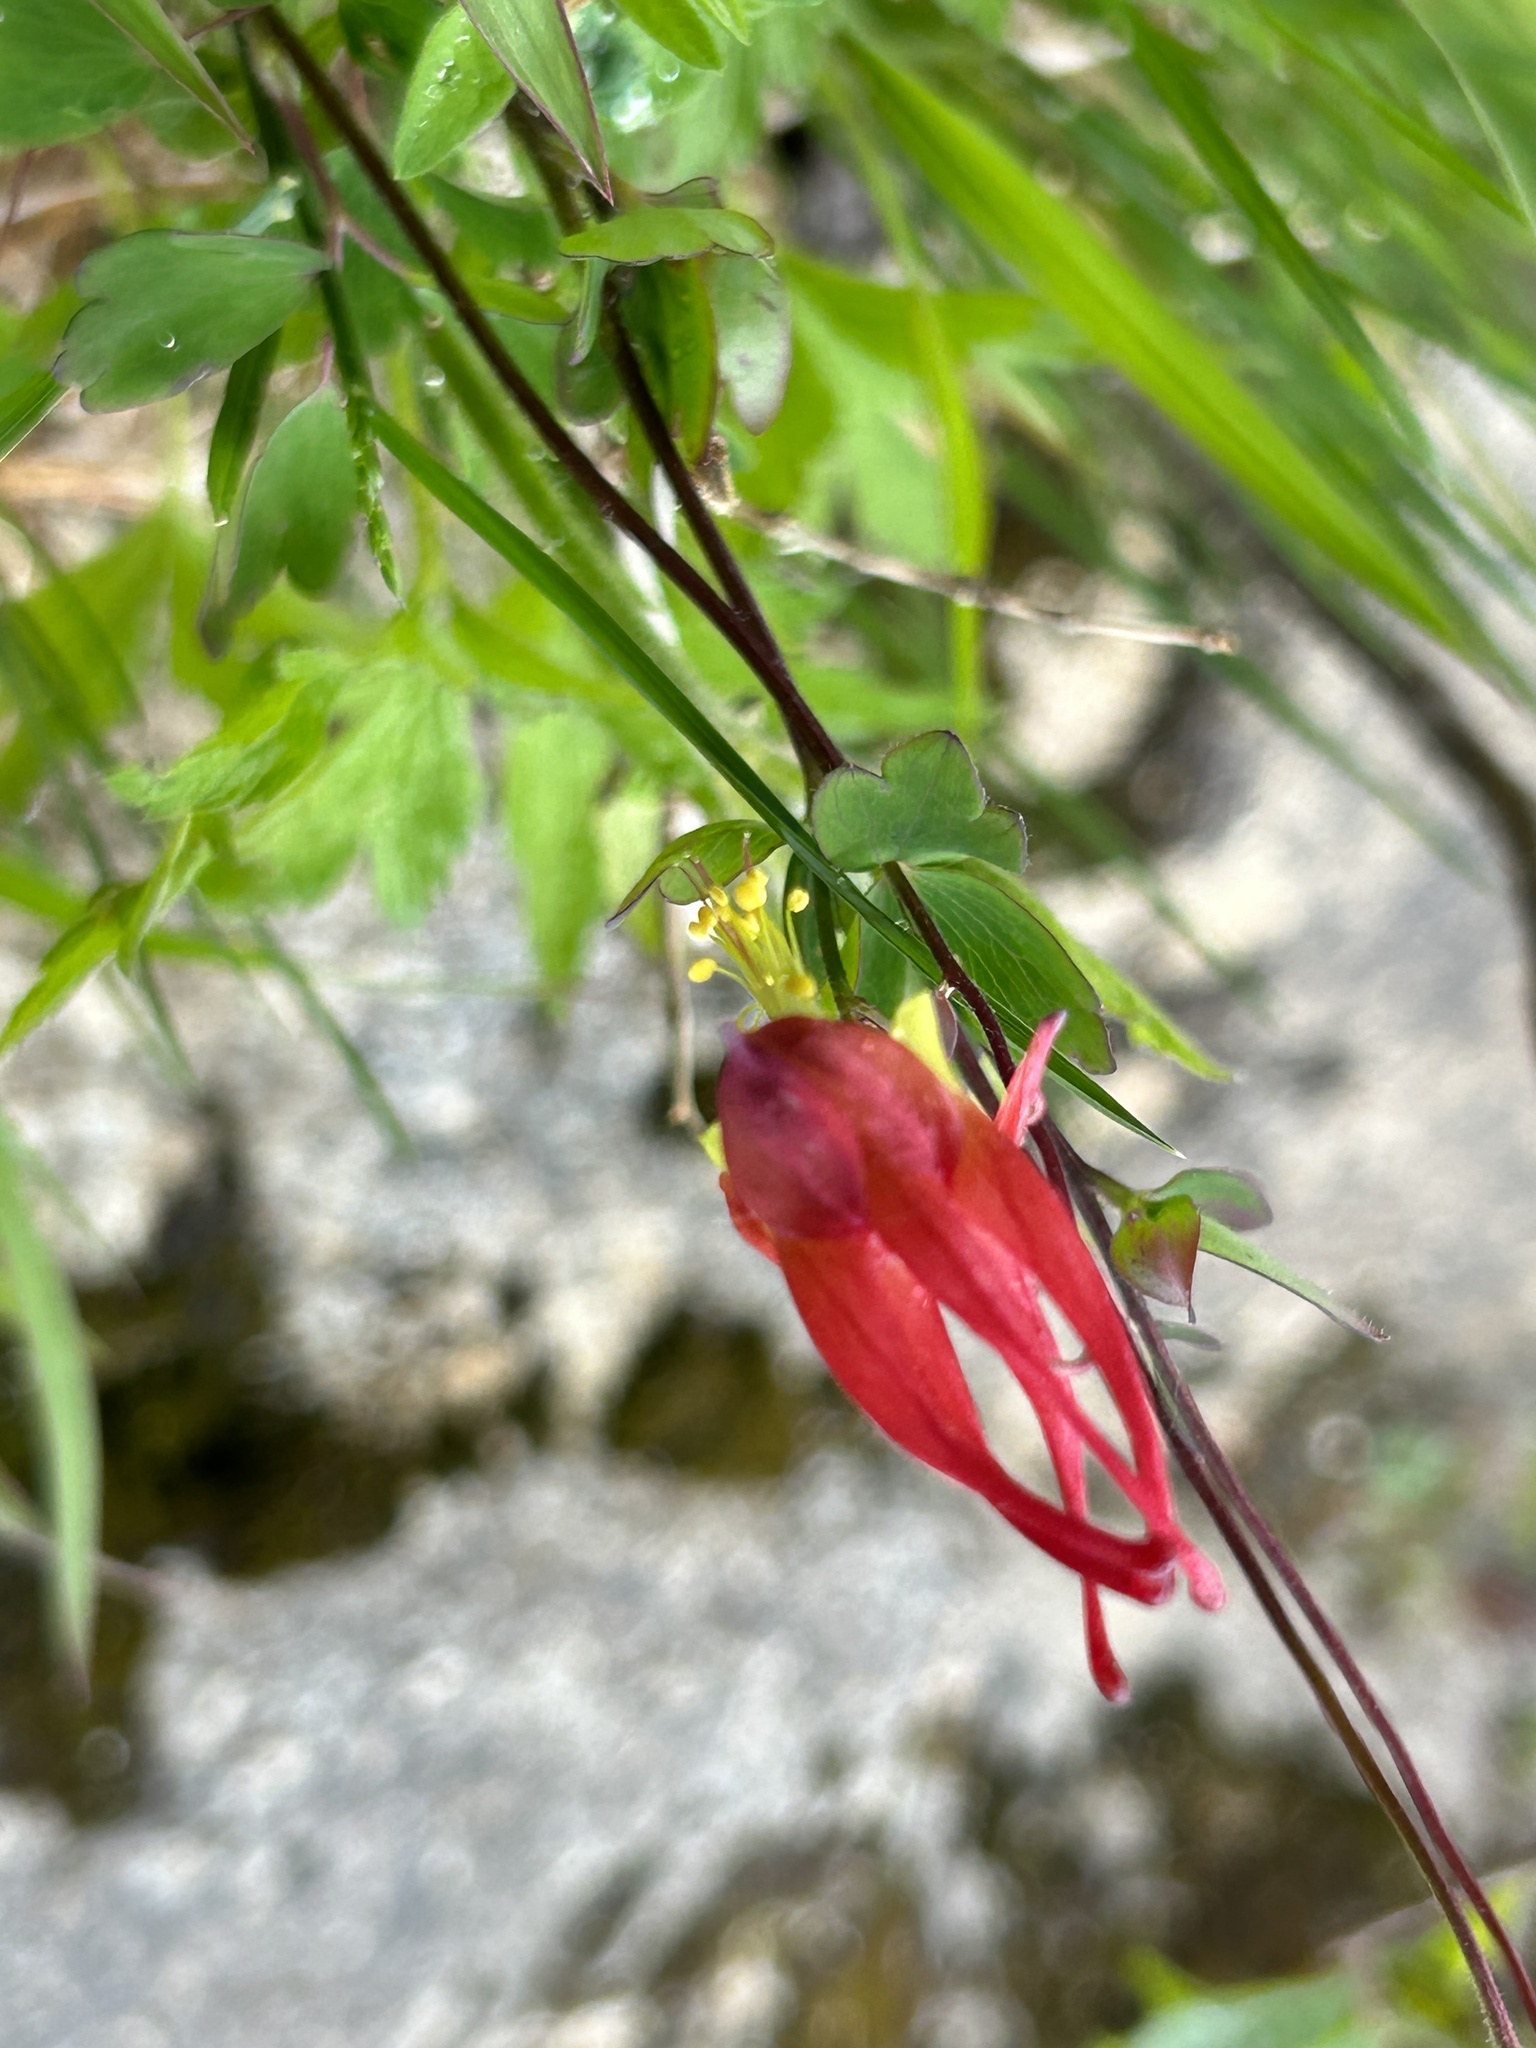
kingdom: Plantae
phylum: Tracheophyta
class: Magnoliopsida
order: Ranunculales
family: Ranunculaceae
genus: Aquilegia
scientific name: Aquilegia canadensis
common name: American columbine
